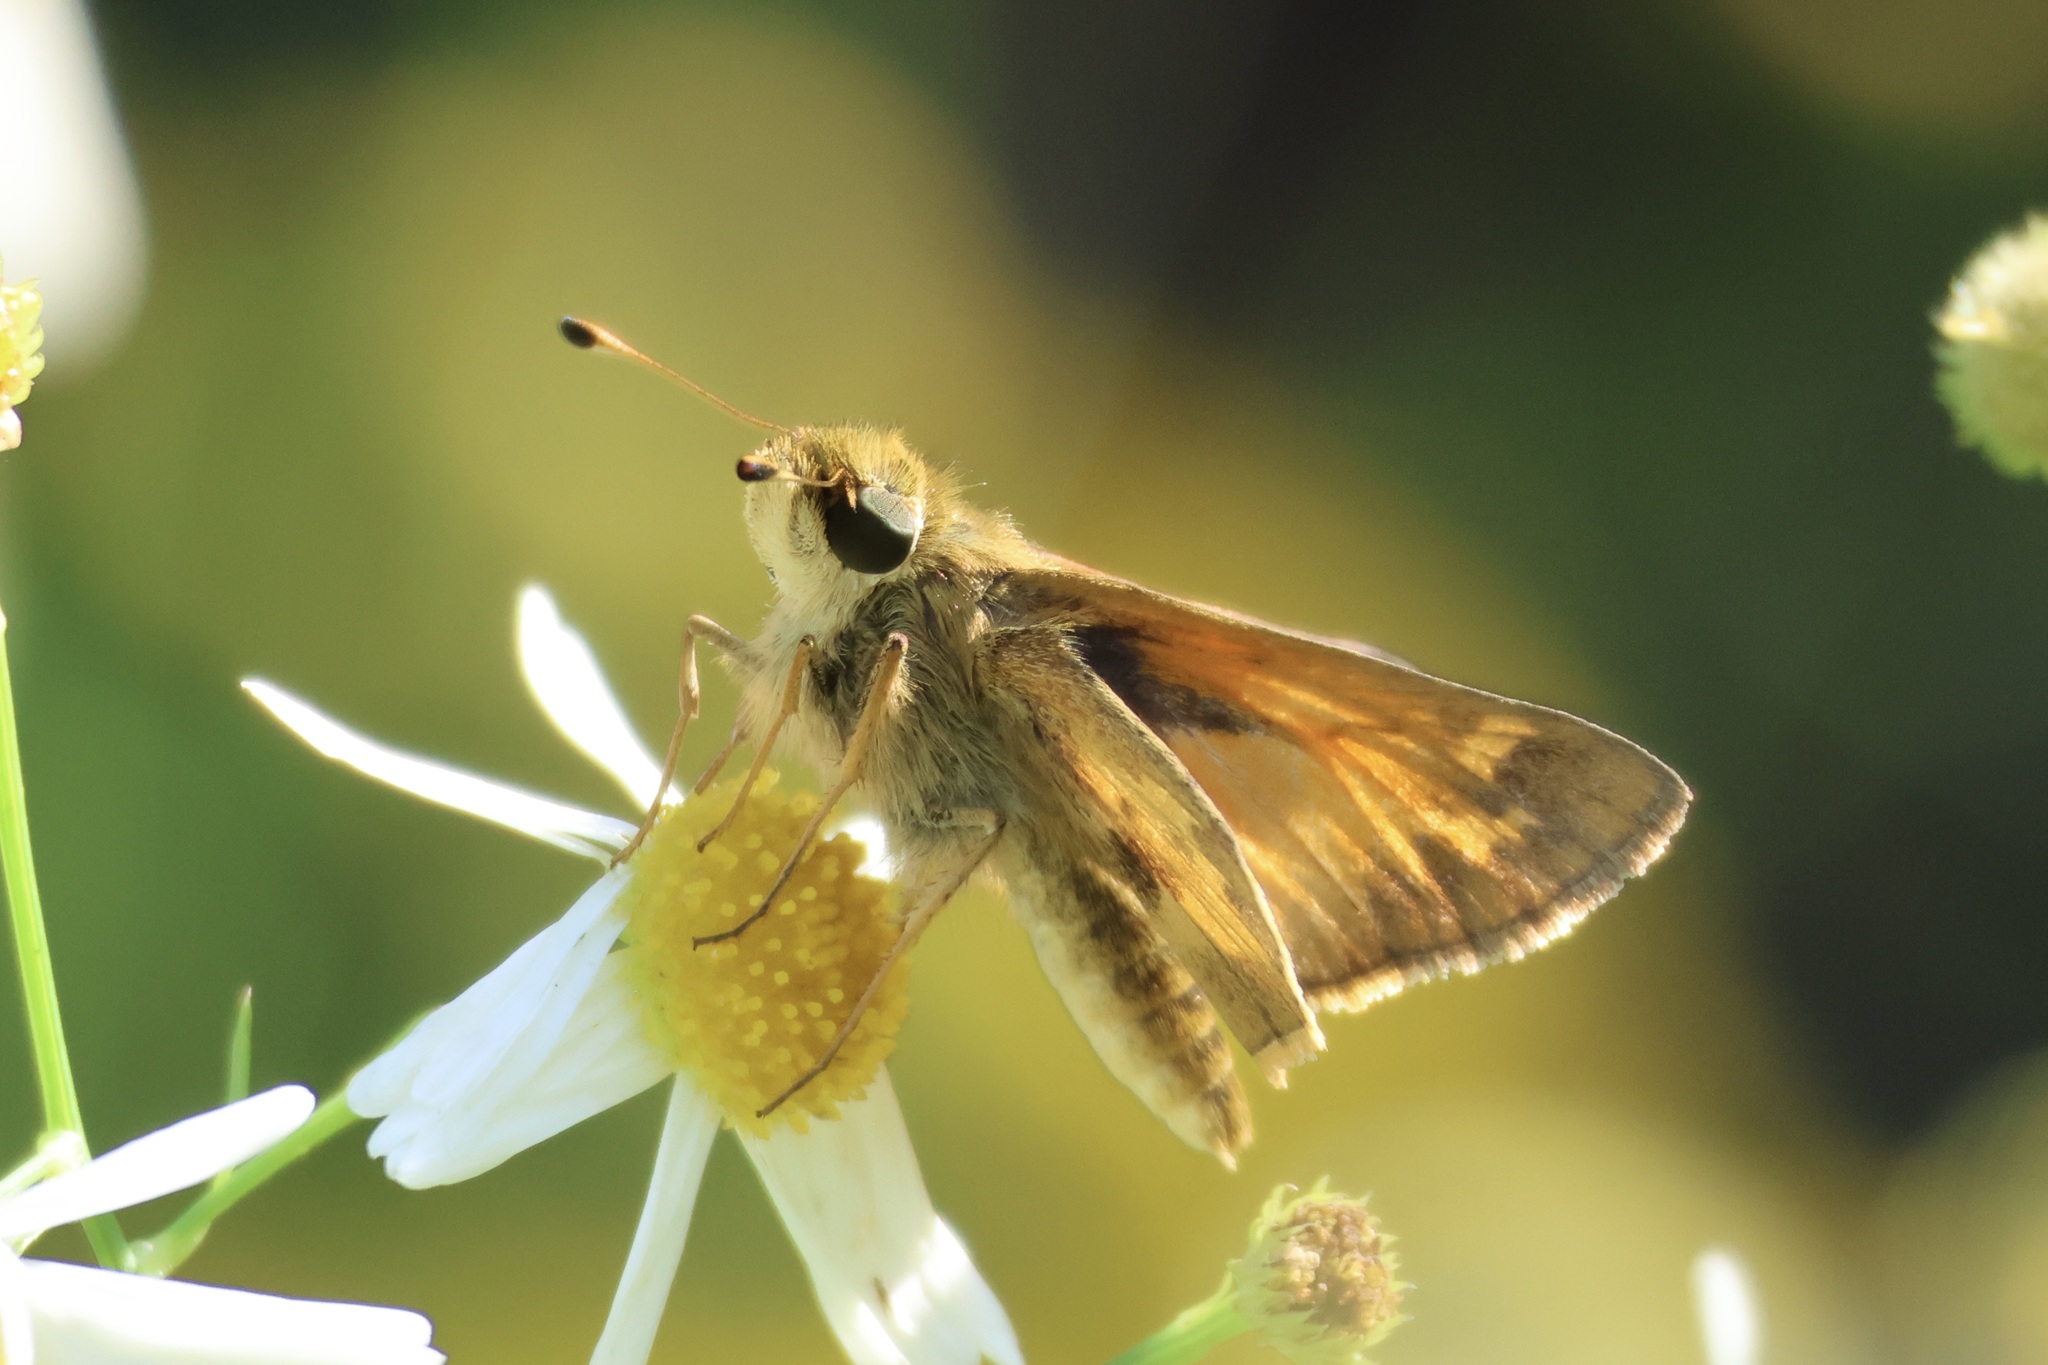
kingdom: Animalia
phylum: Arthropoda
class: Insecta
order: Lepidoptera
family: Hesperiidae
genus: Atalopedes
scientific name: Atalopedes
